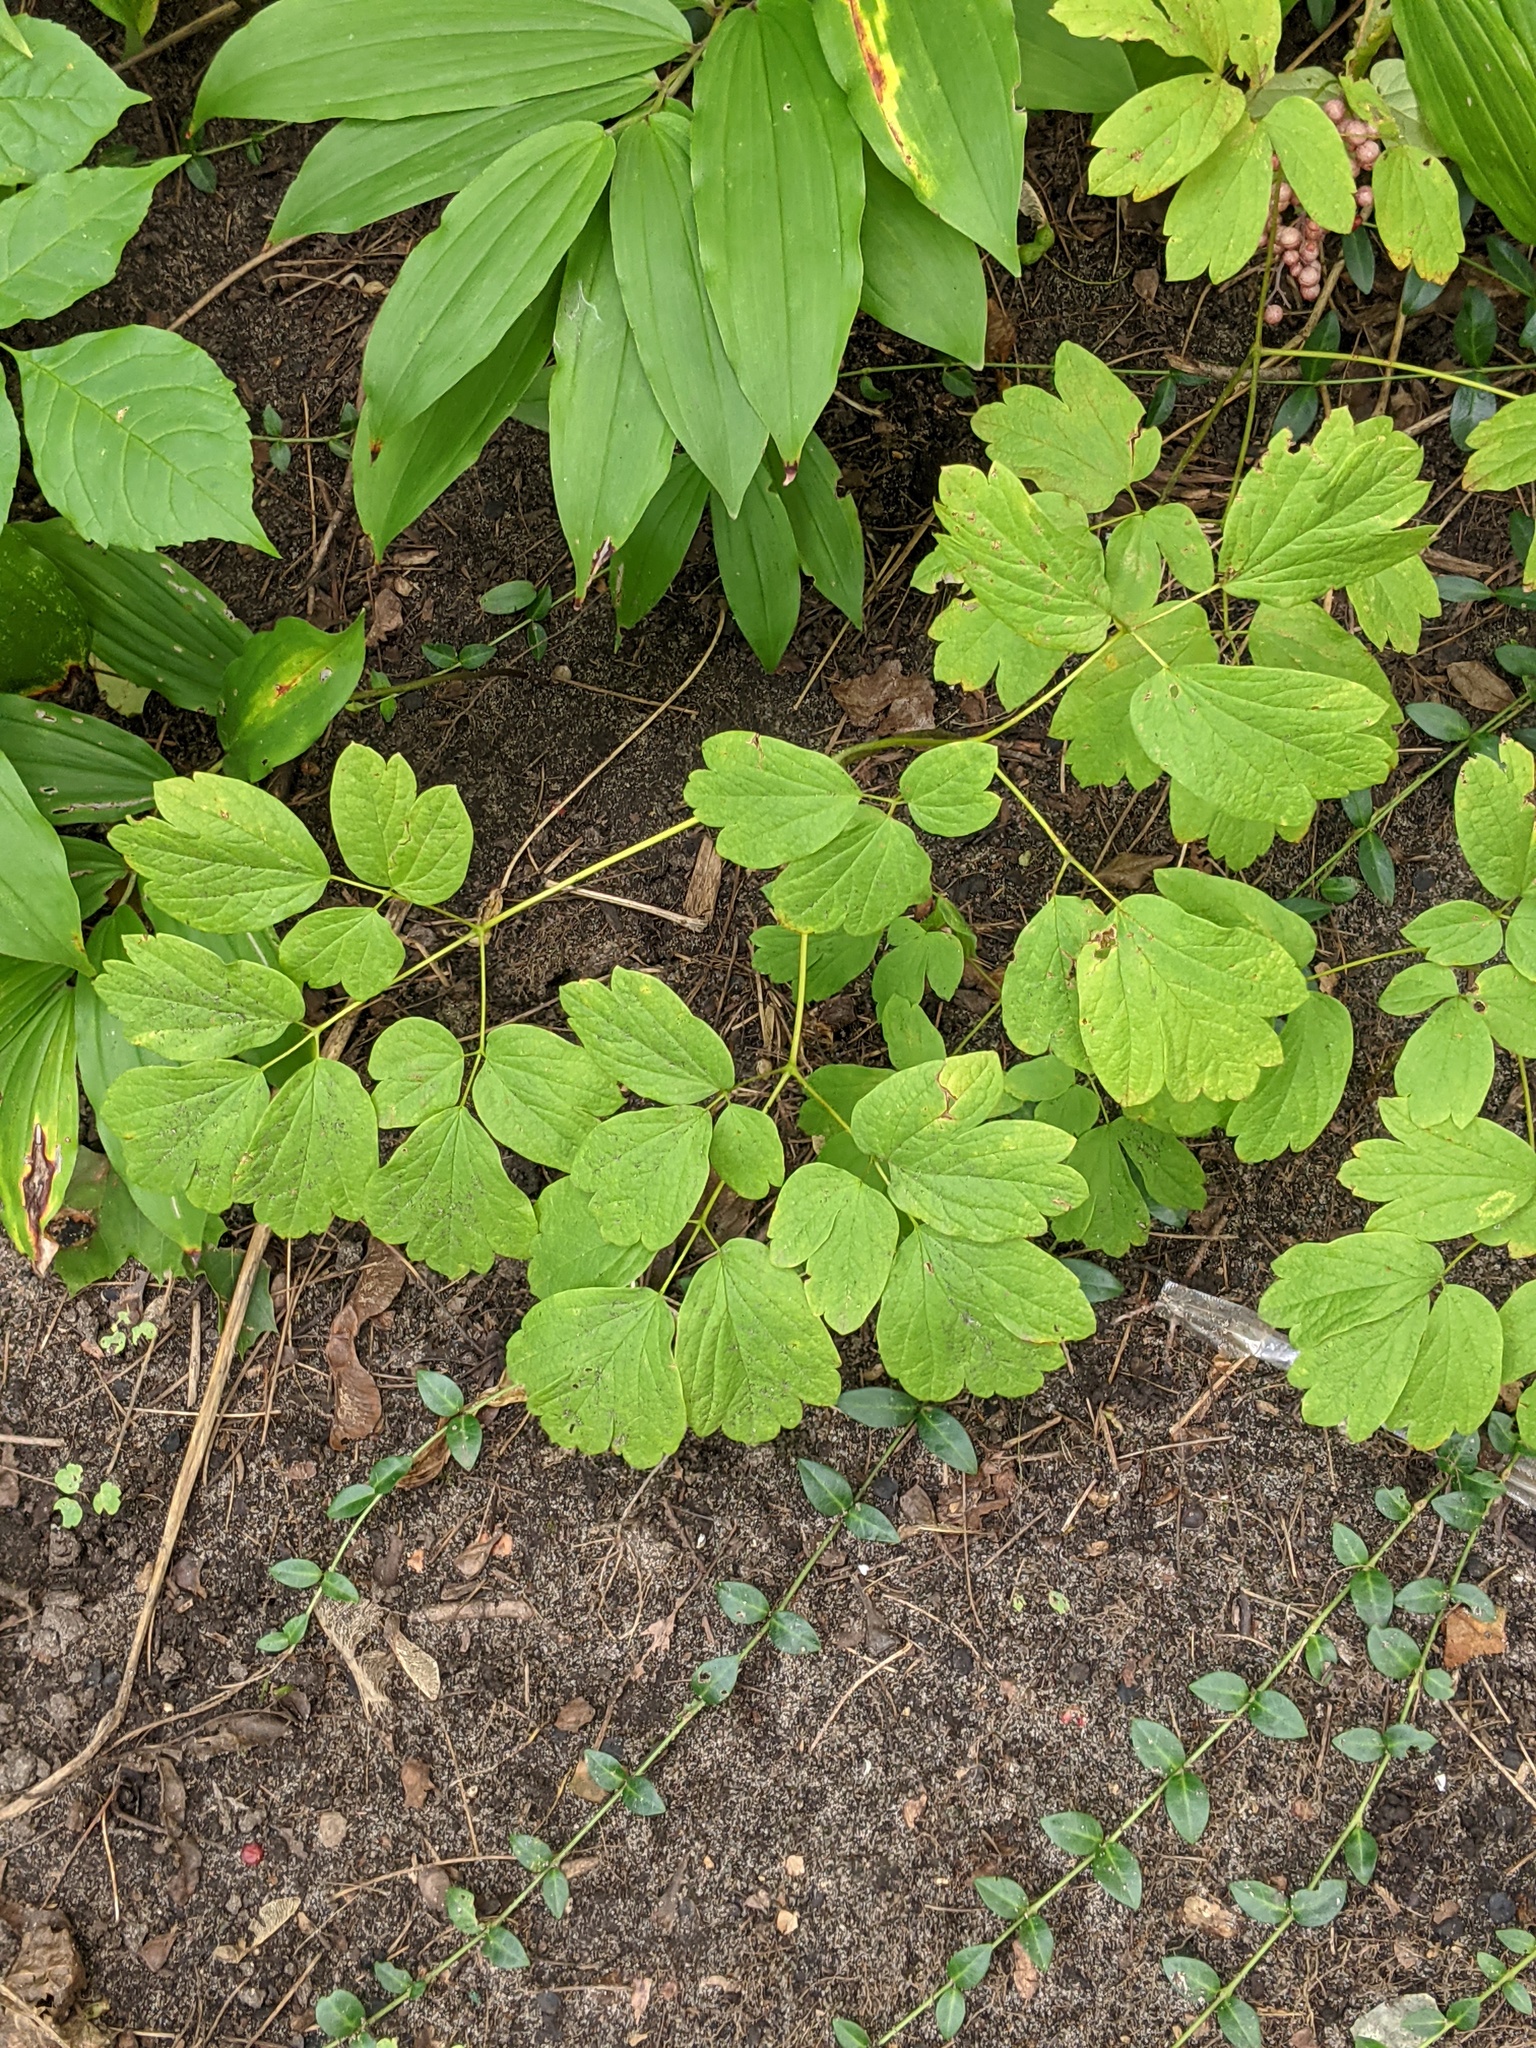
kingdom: Plantae
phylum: Tracheophyta
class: Magnoliopsida
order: Ranunculales
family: Berberidaceae
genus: Caulophyllum
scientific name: Caulophyllum thalictroides
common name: Blue cohosh
